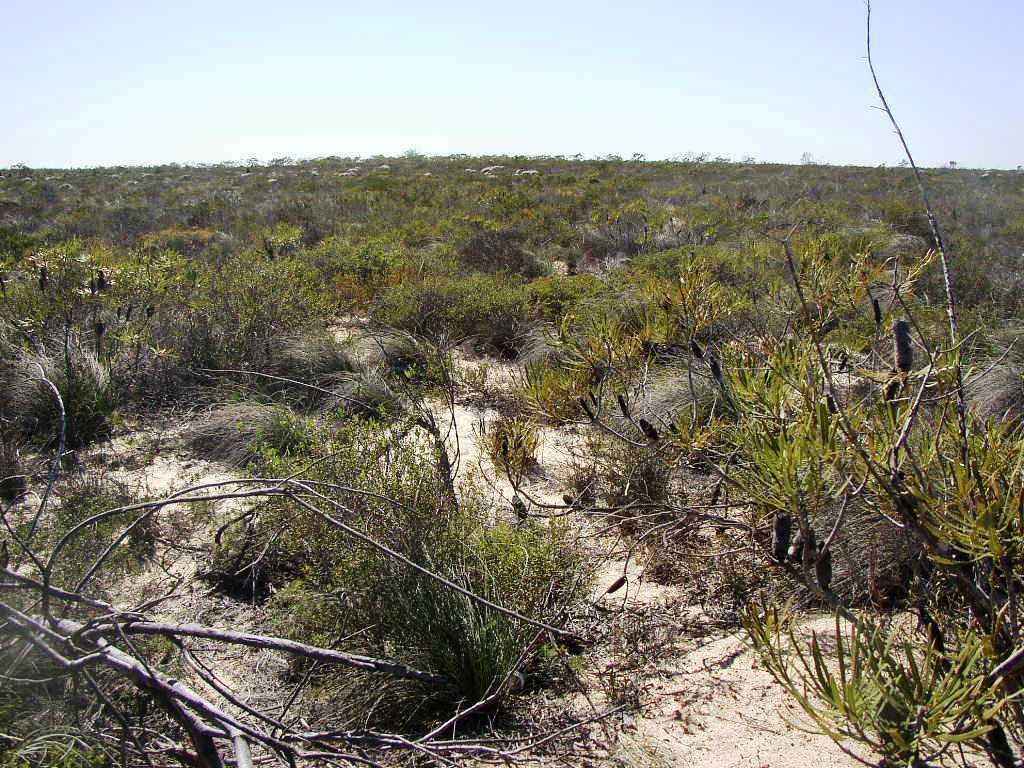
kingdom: Plantae
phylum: Tracheophyta
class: Magnoliopsida
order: Proteales
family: Proteaceae
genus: Banksia
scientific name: Banksia attenuata
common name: Coast banksia
